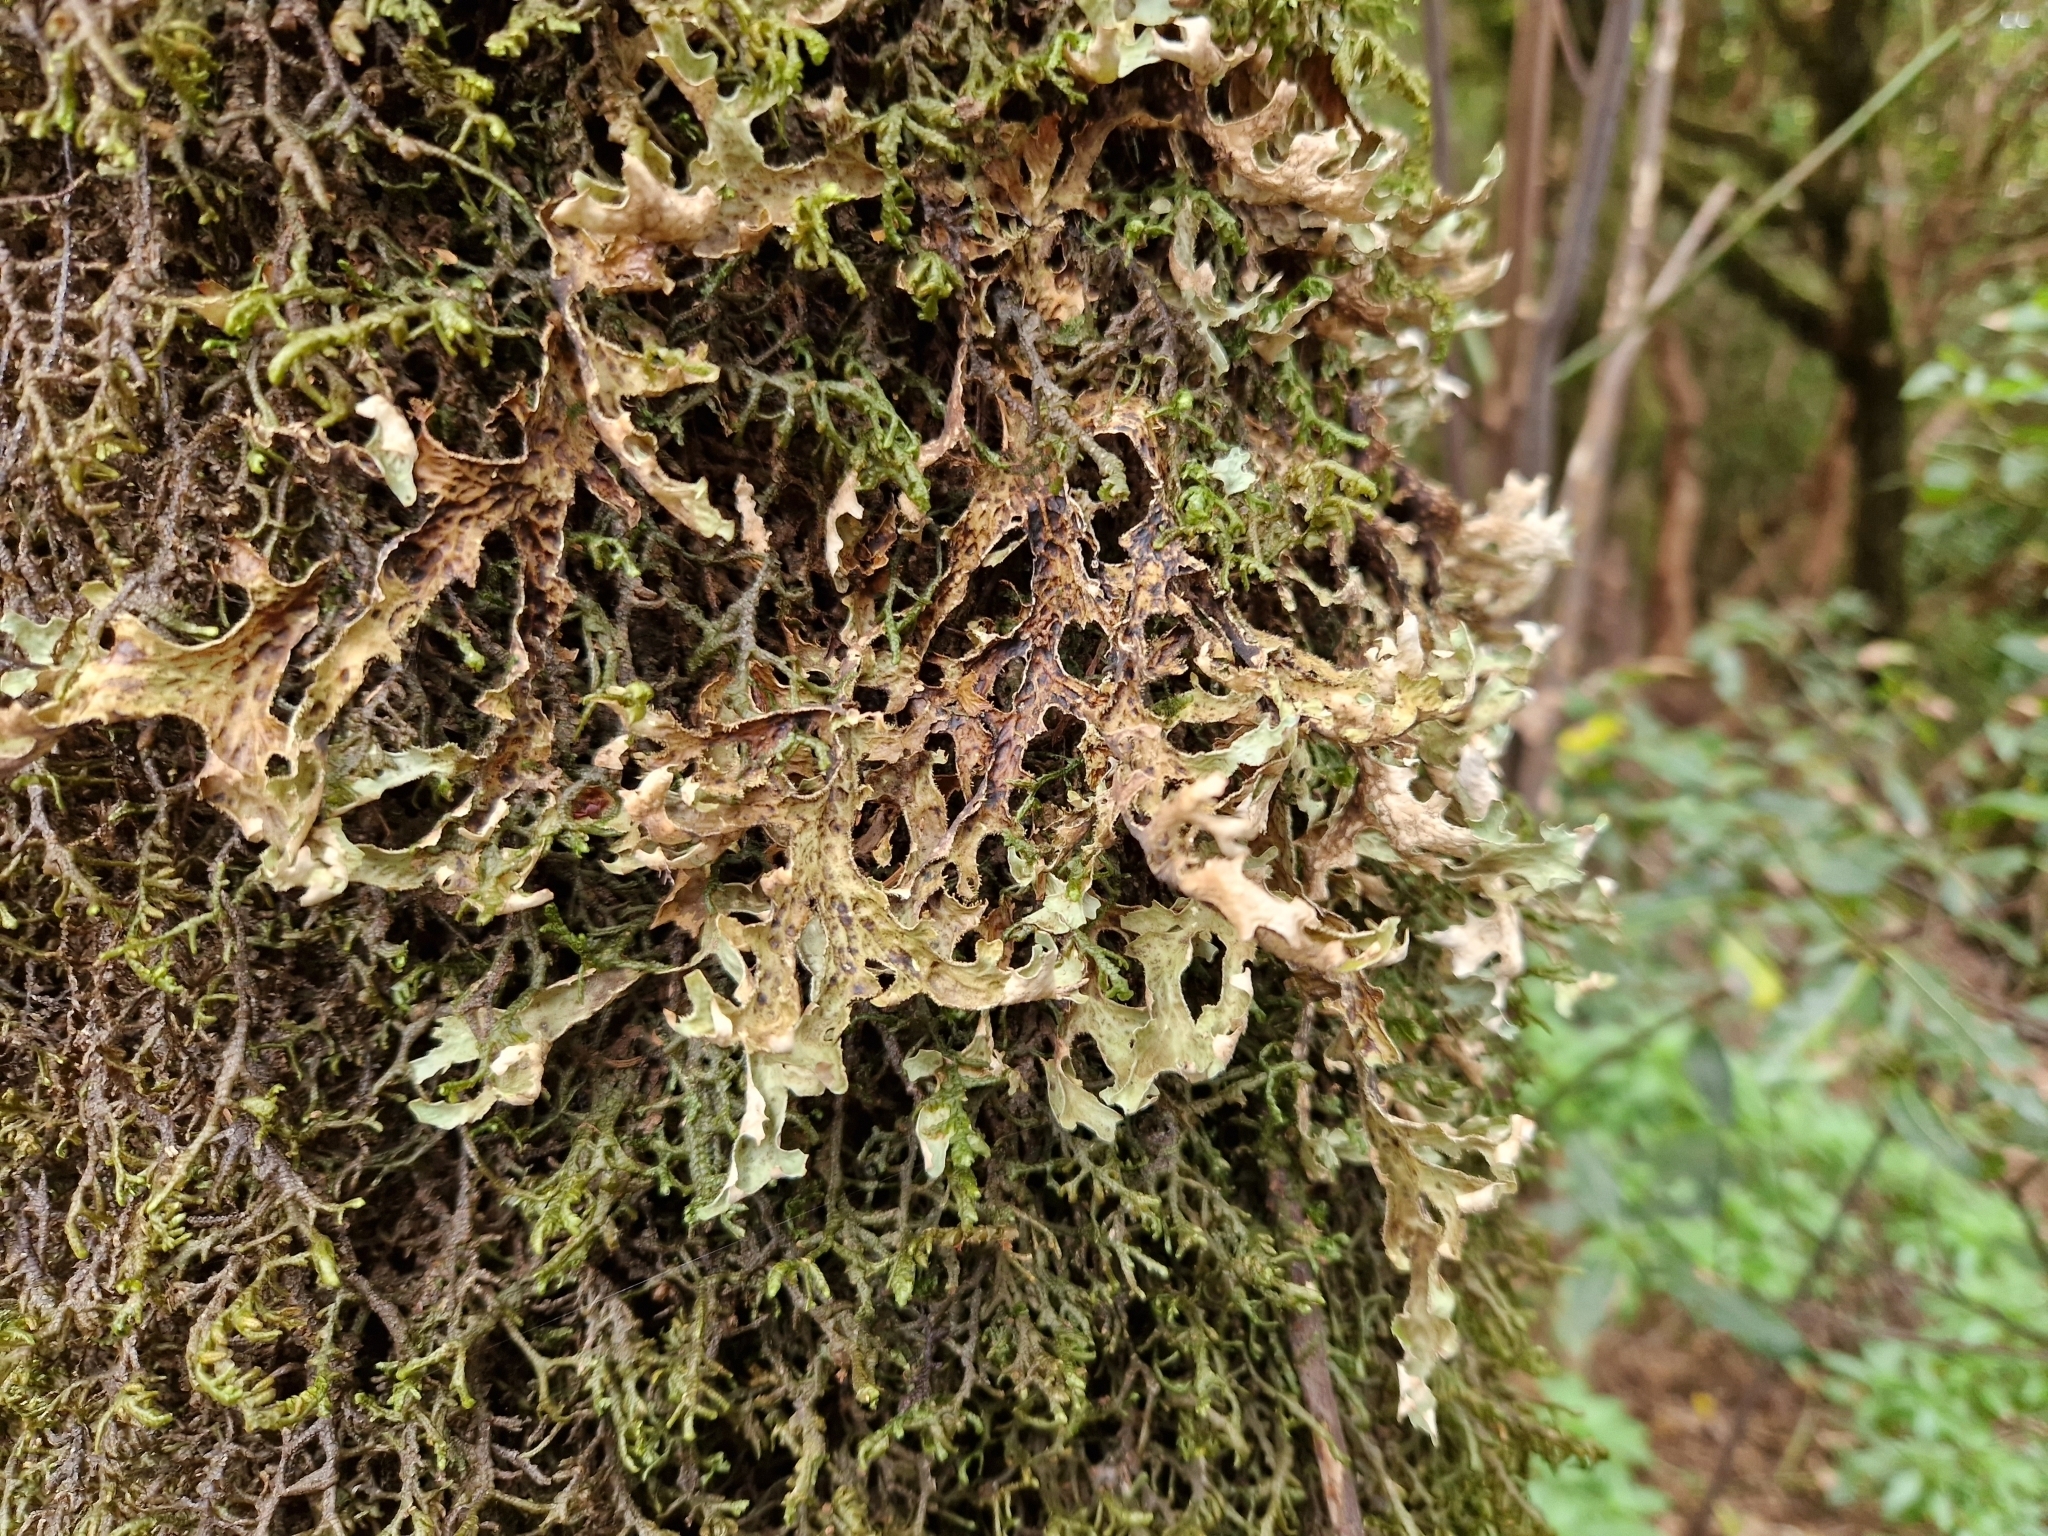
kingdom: Fungi
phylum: Ascomycota
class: Lecanoromycetes
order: Peltigerales
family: Lobariaceae
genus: Lobaria
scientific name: Lobaria pulmonaria
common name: Lungwort
